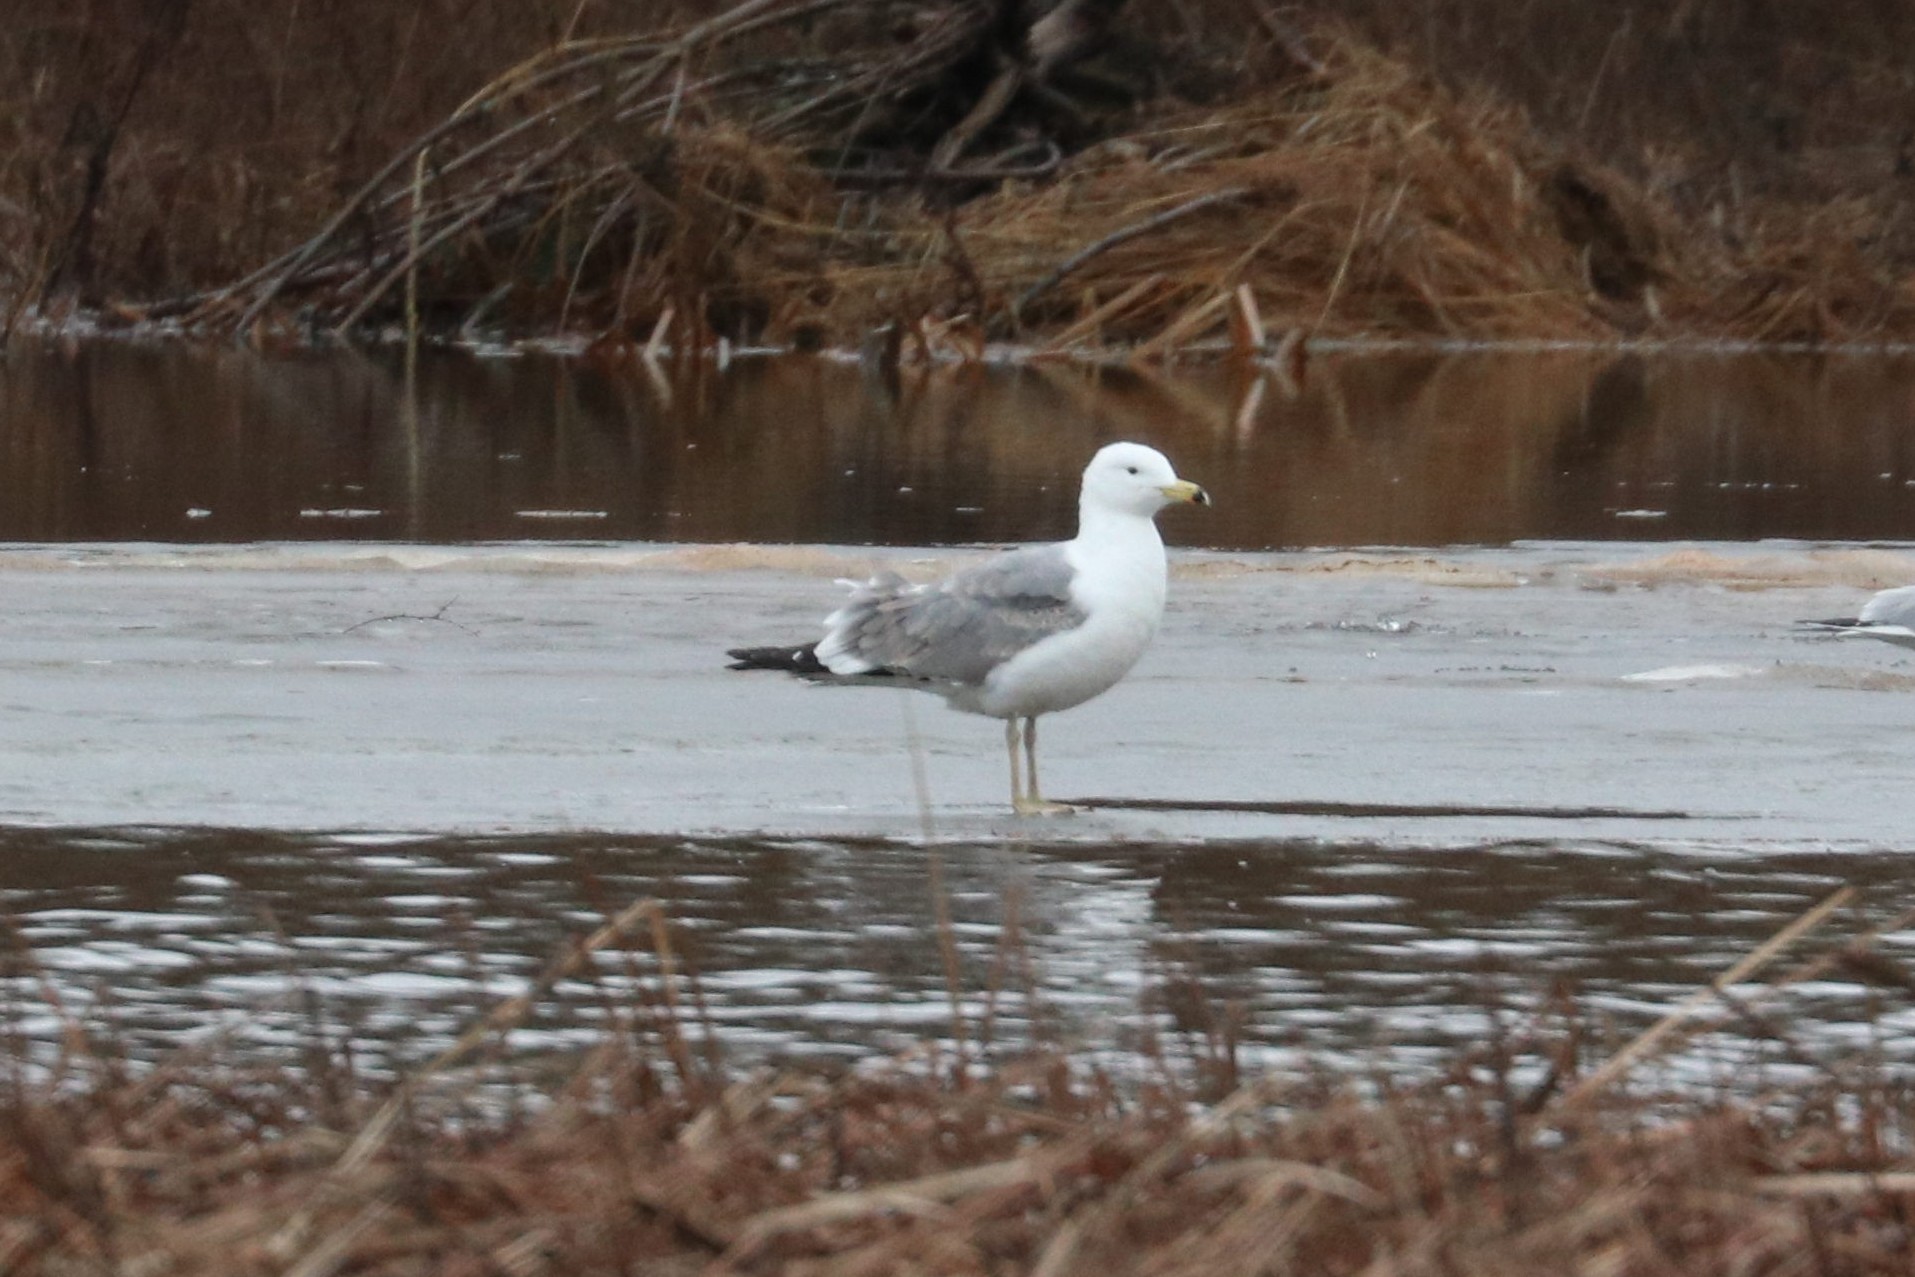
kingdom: Animalia
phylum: Chordata
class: Aves
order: Charadriiformes
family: Laridae
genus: Larus
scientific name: Larus cachinnans
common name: Caspian gull
